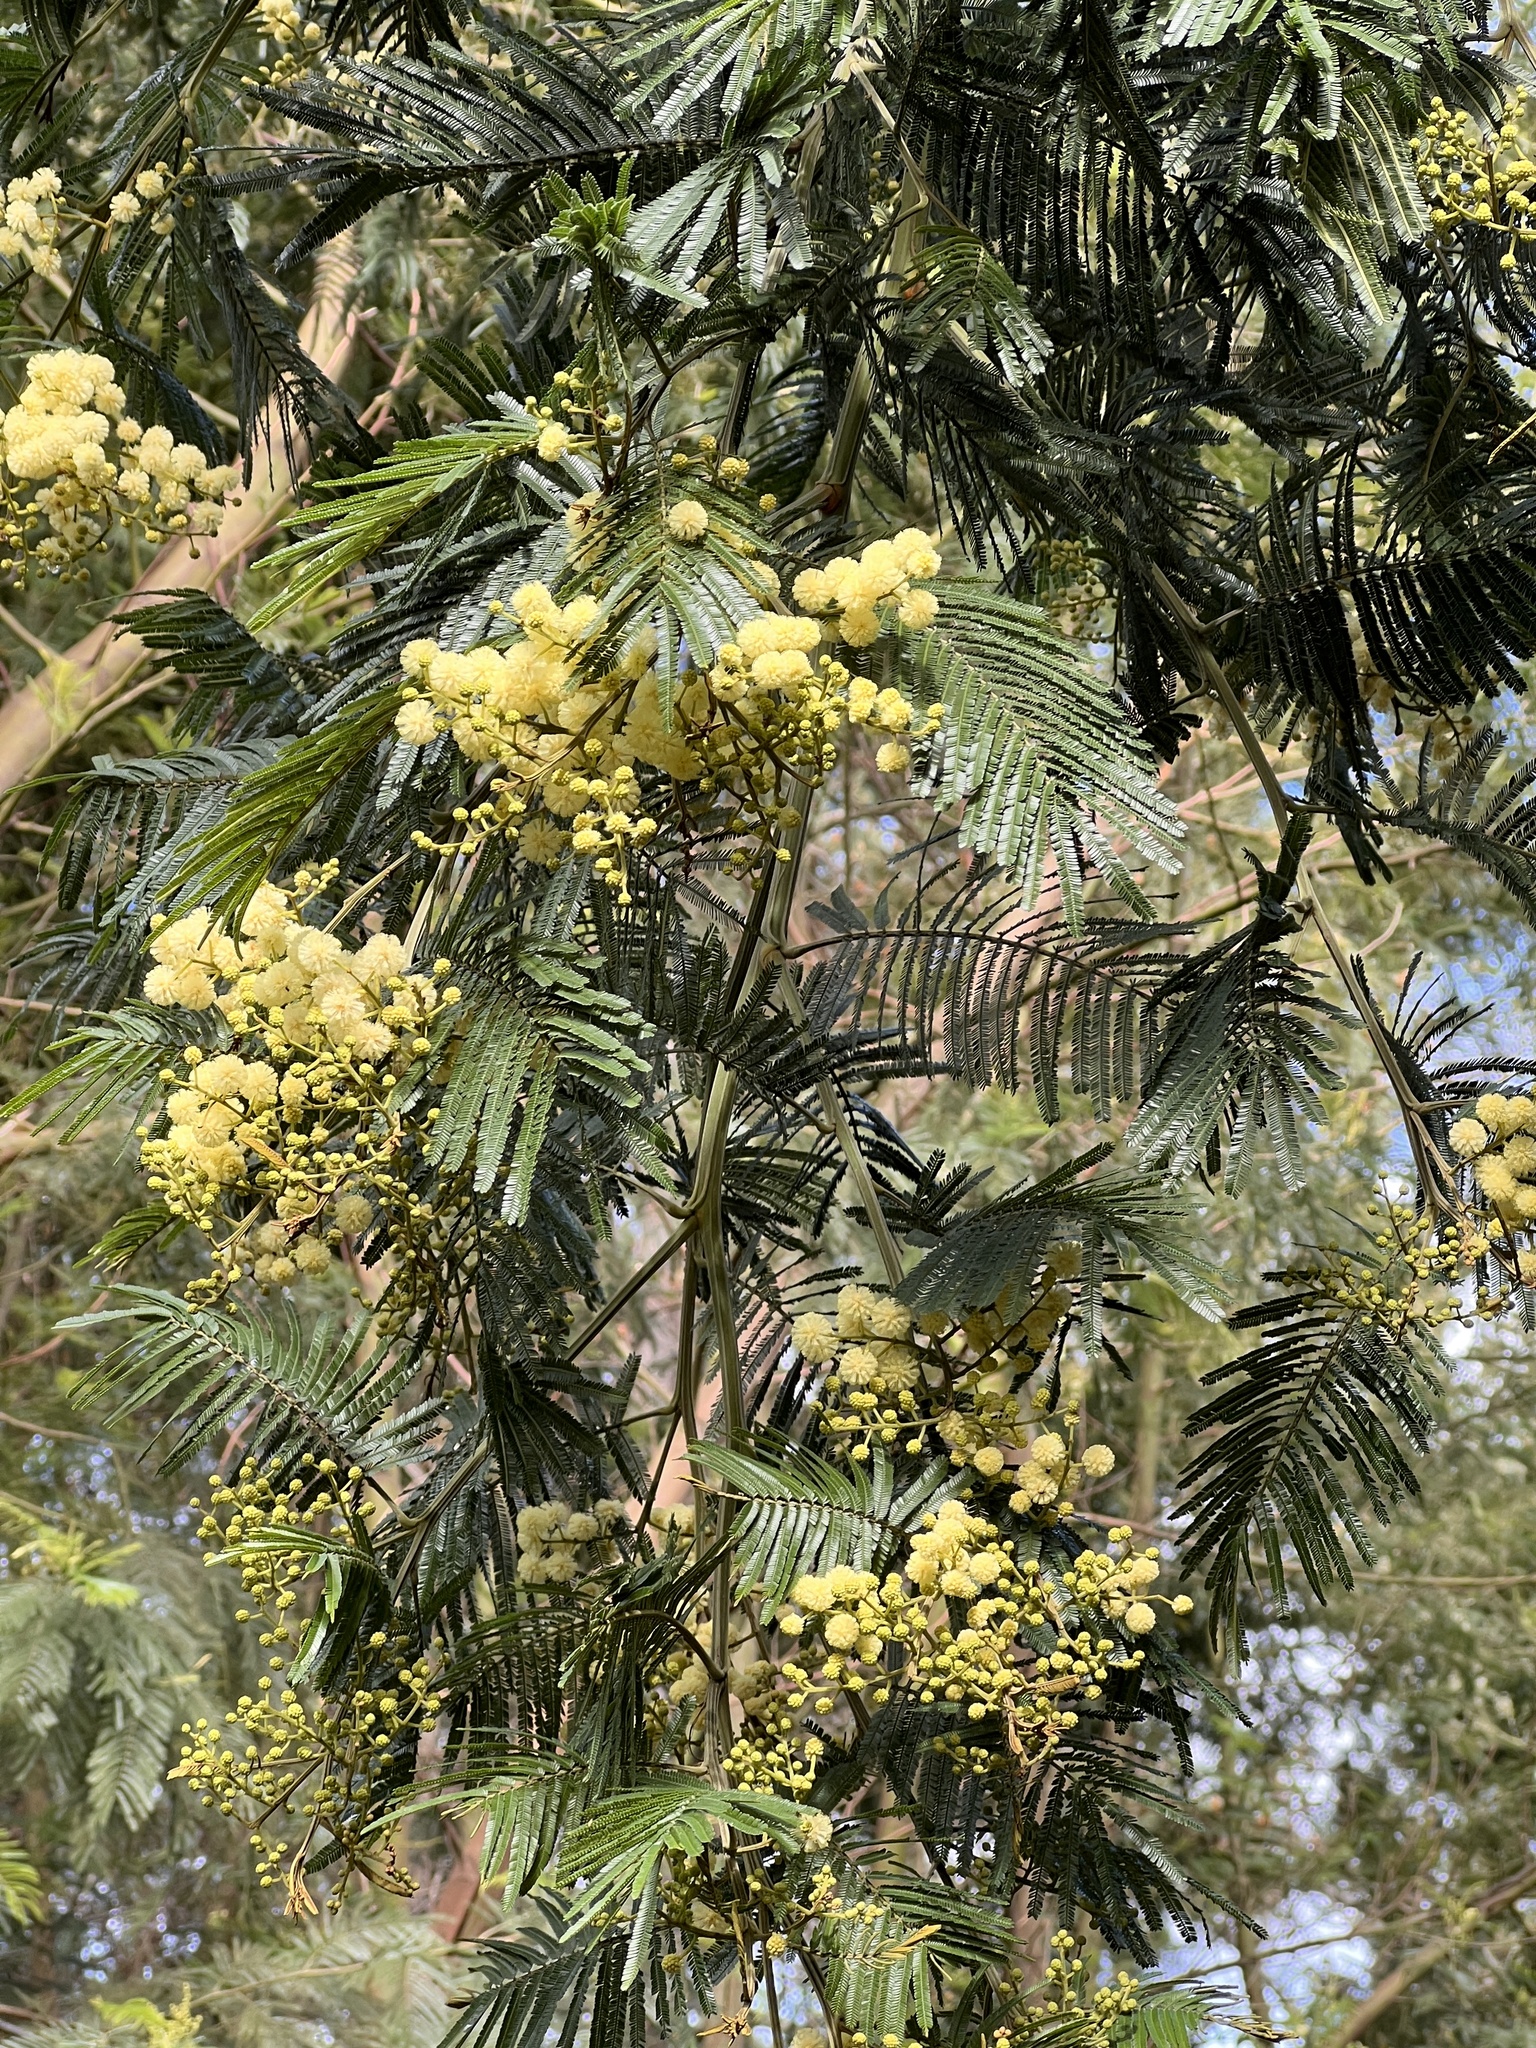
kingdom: Plantae
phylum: Tracheophyta
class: Magnoliopsida
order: Fabales
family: Fabaceae
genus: Acacia
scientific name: Acacia mearnsii
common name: Black wattle
